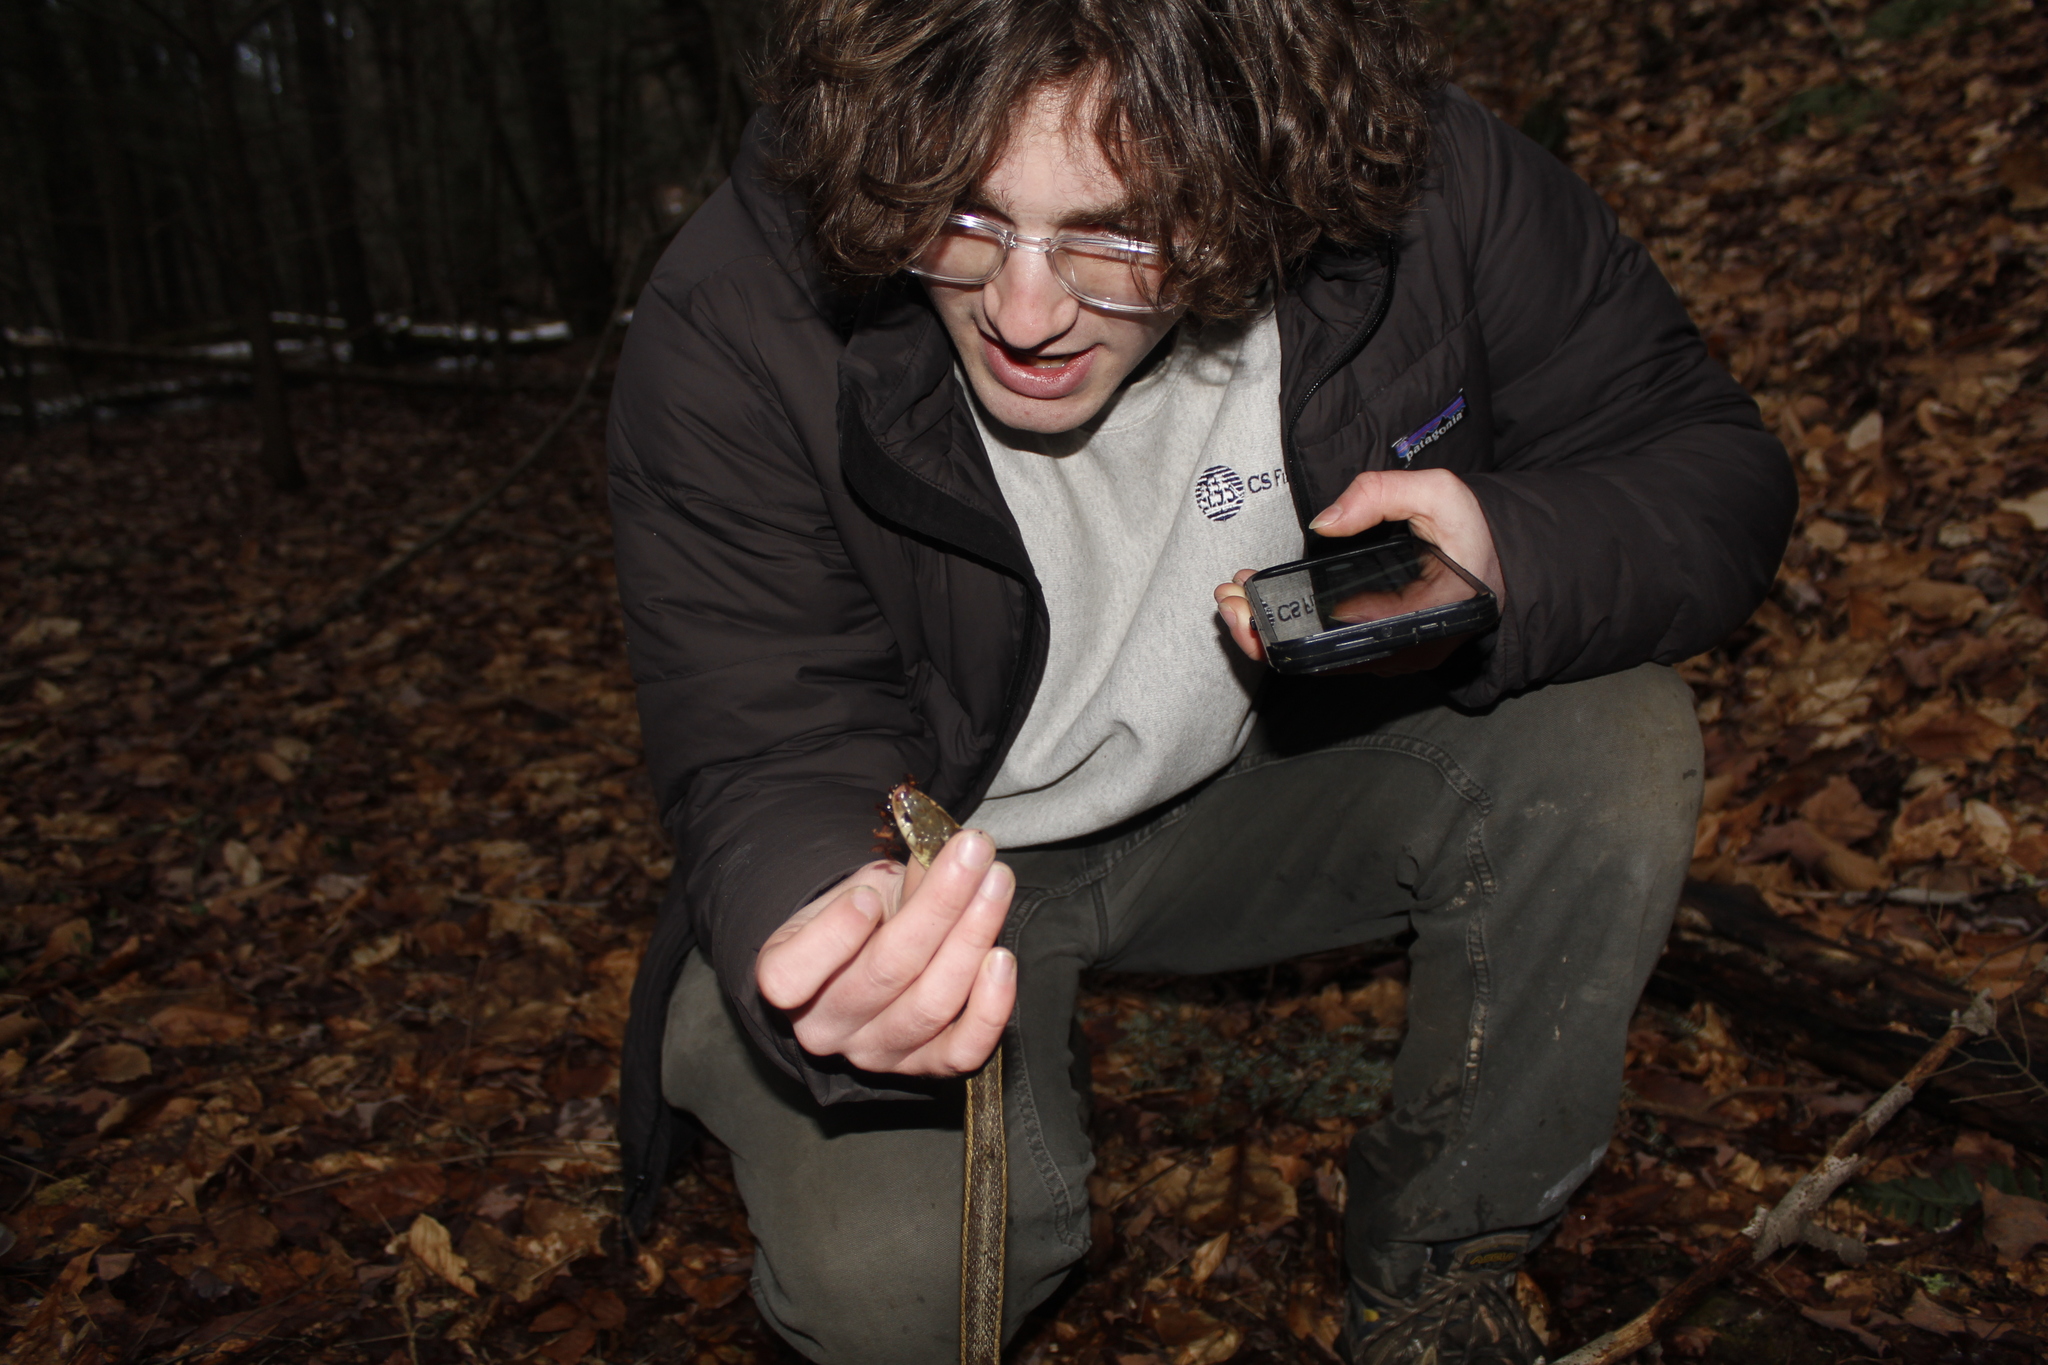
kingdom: Animalia
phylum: Chordata
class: Squamata
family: Colubridae
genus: Thamnophis
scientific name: Thamnophis sirtalis
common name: Common garter snake
